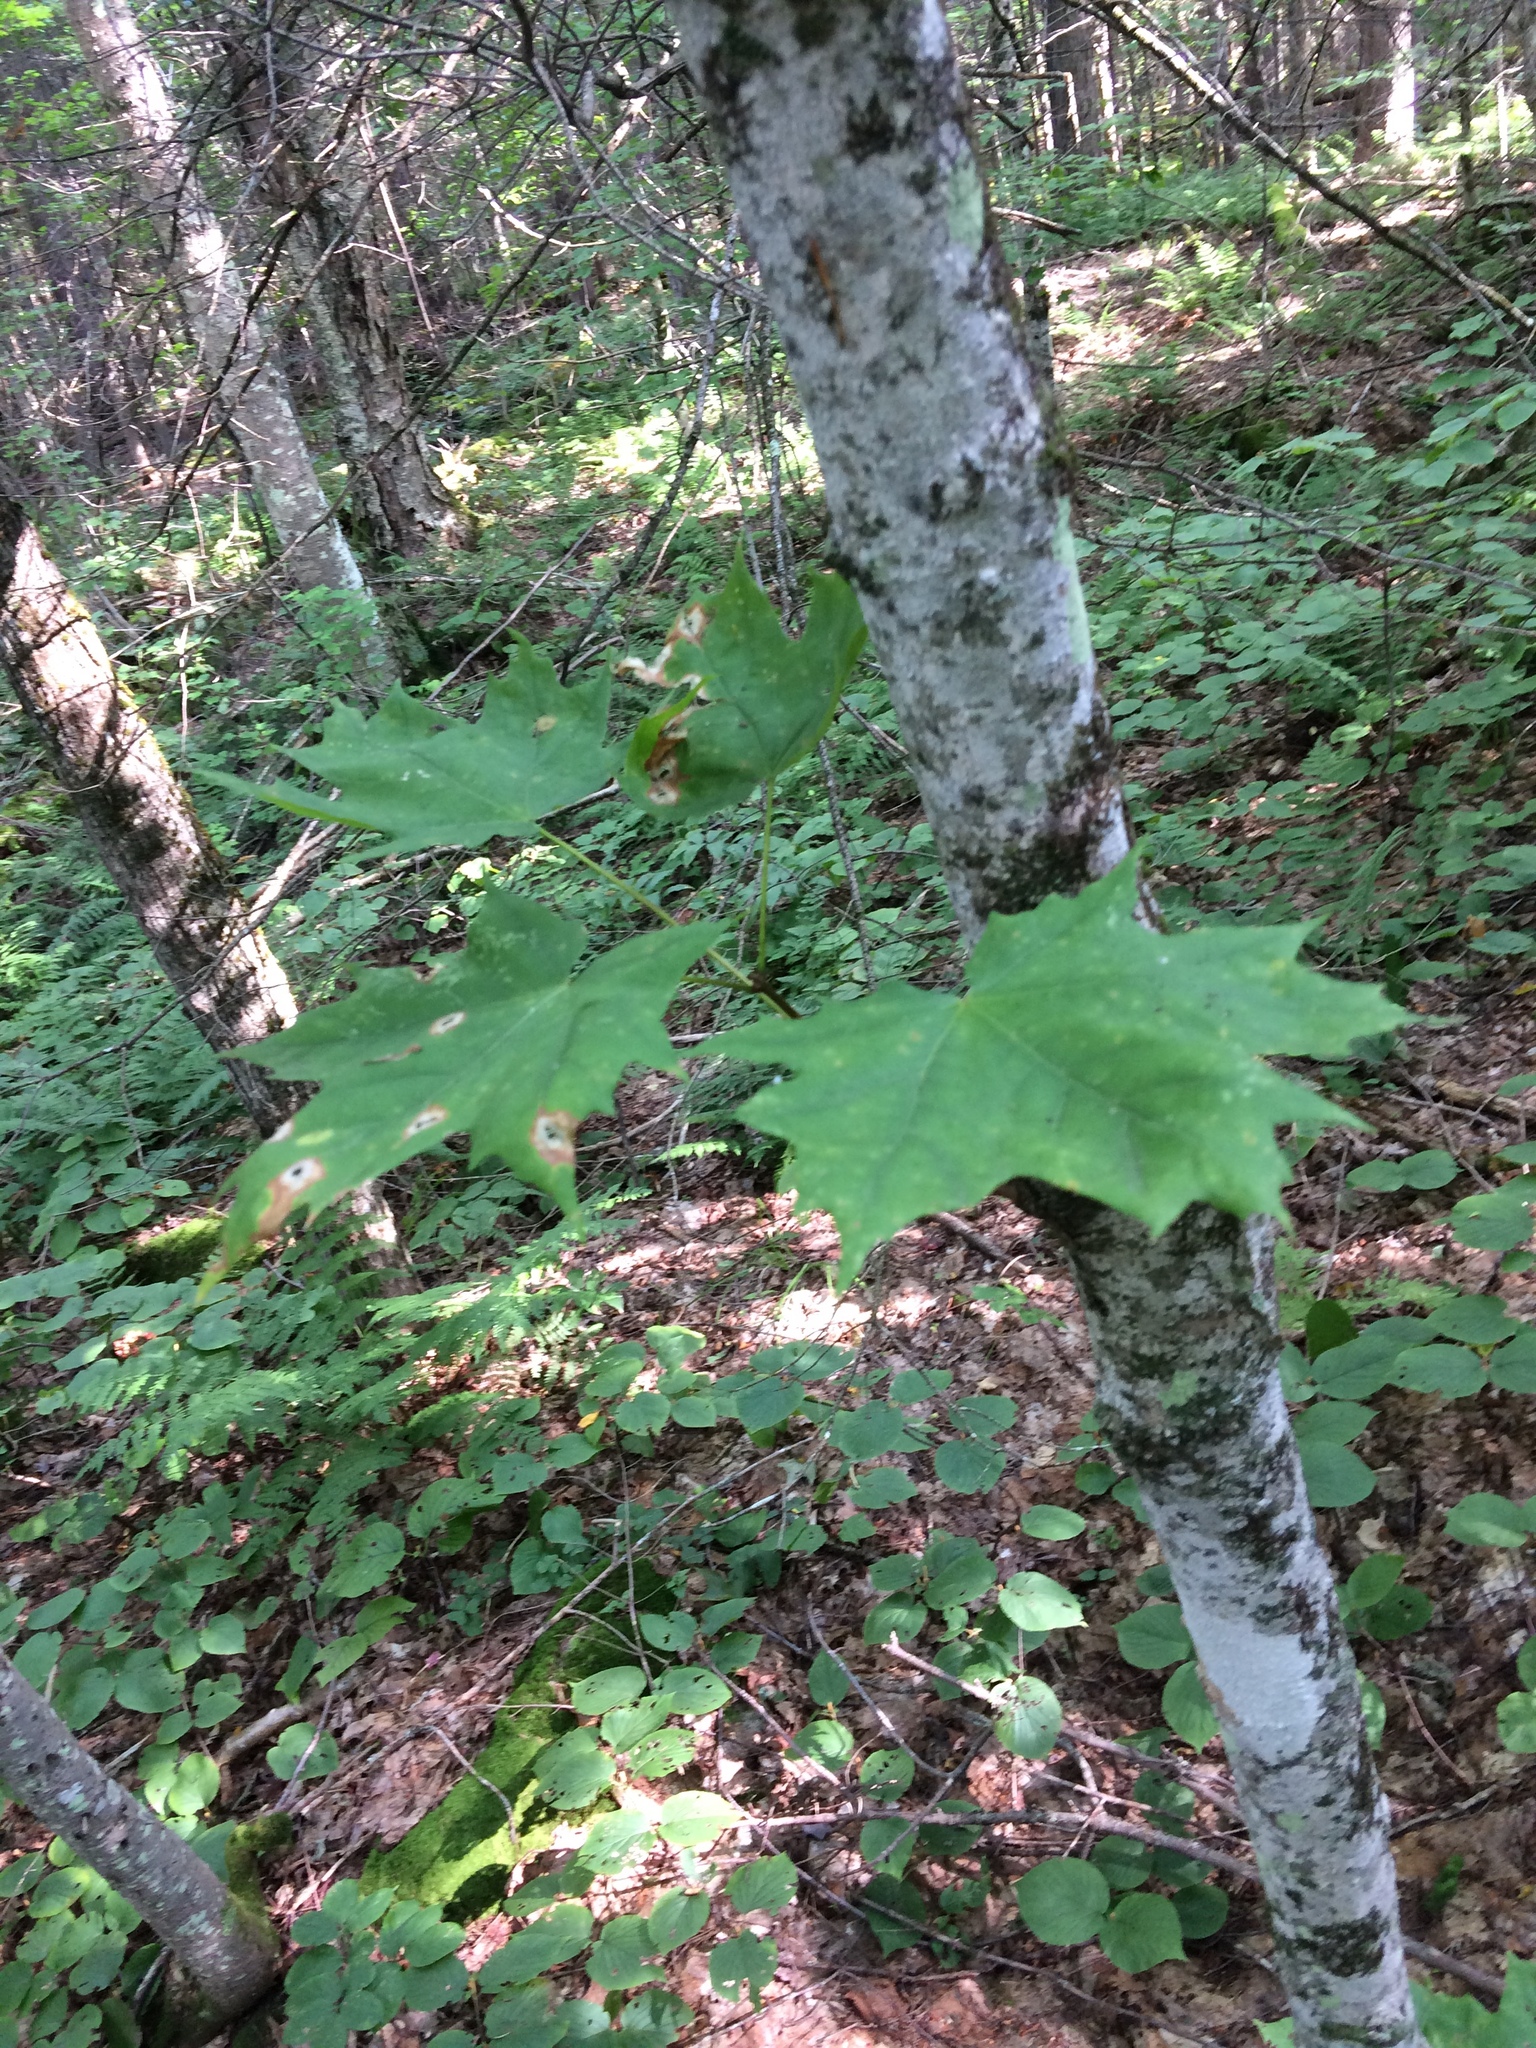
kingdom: Plantae
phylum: Tracheophyta
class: Magnoliopsida
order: Sapindales
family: Sapindaceae
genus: Acer
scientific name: Acer saccharum
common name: Sugar maple
